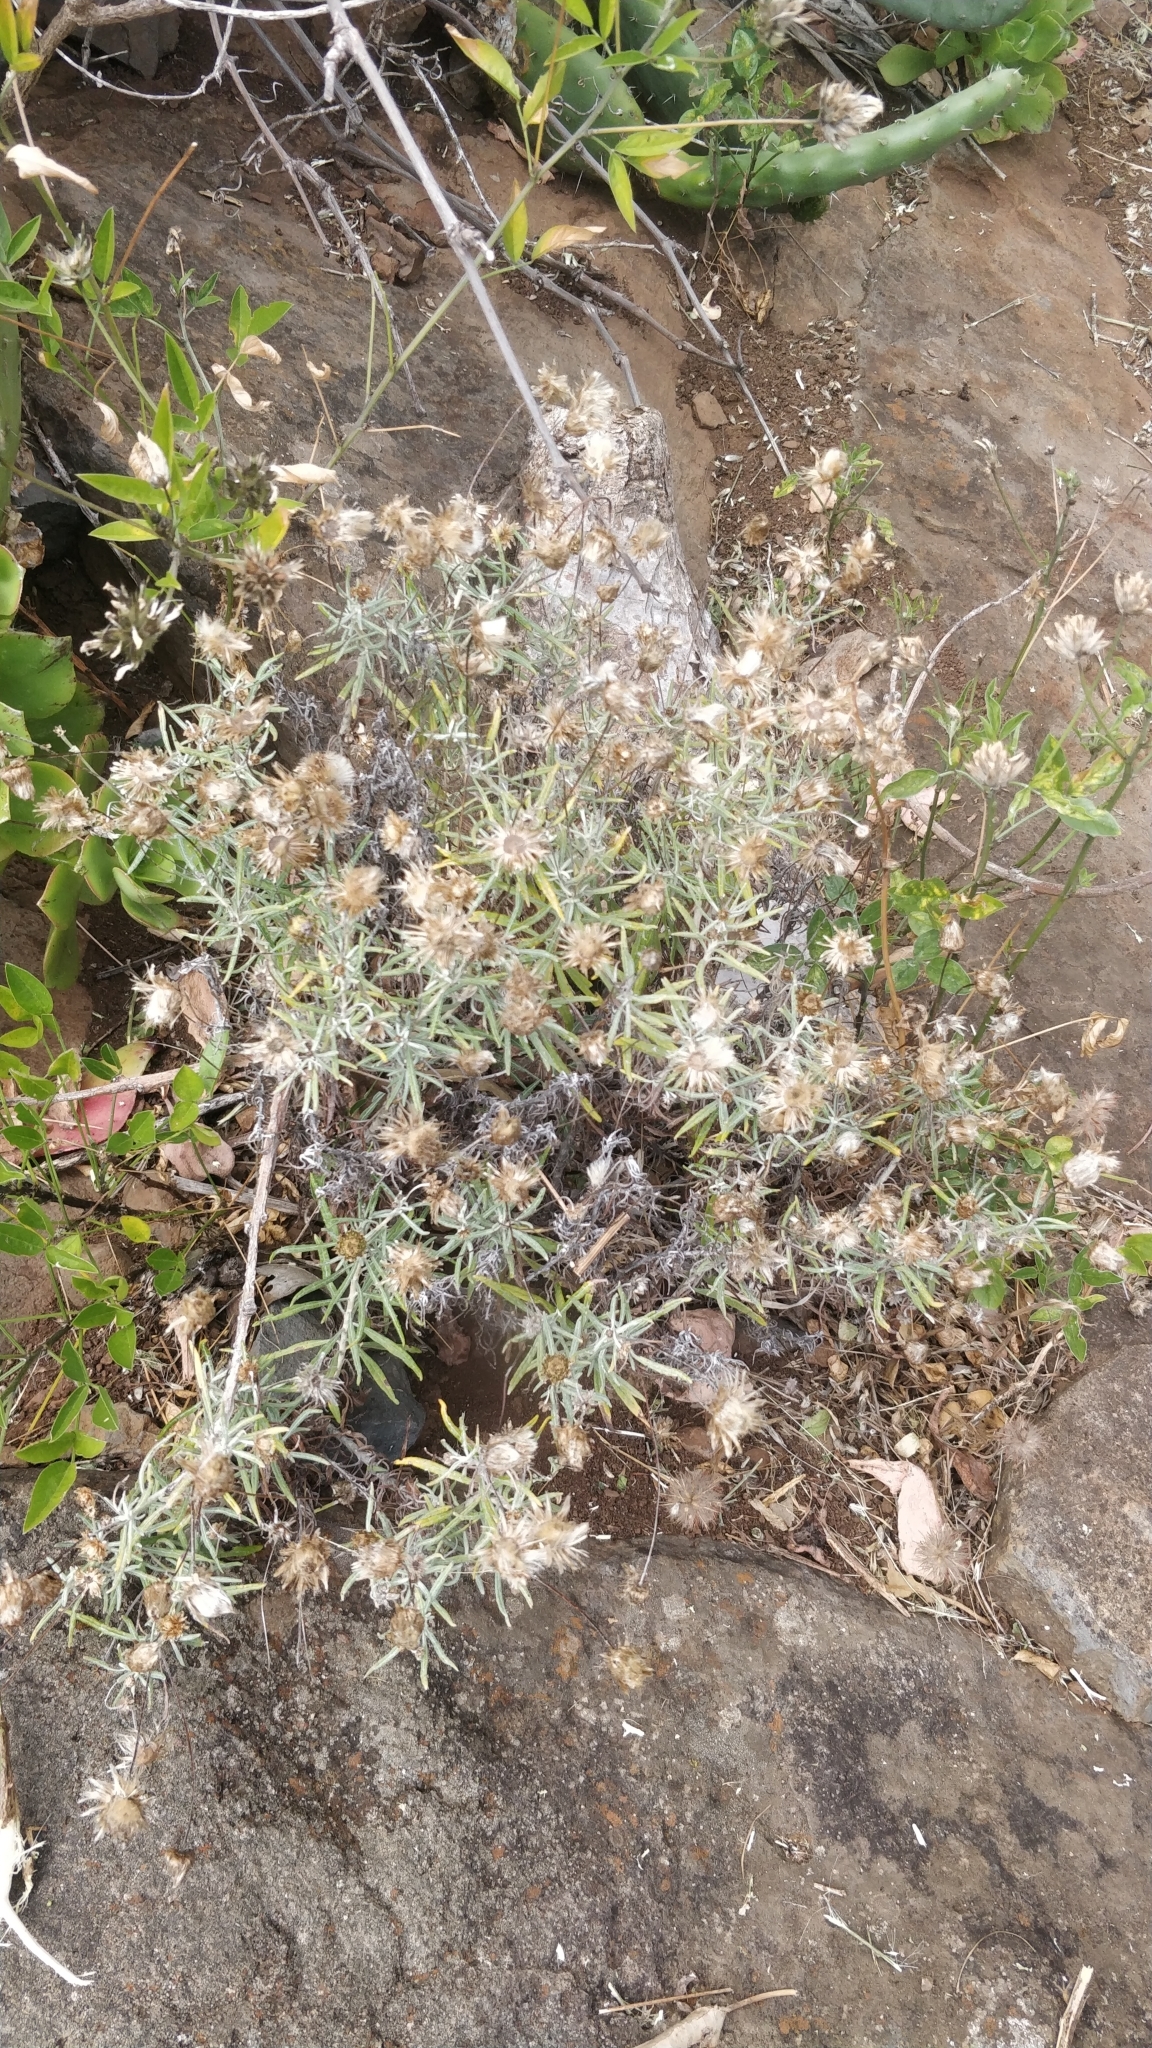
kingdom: Plantae
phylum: Tracheophyta
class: Magnoliopsida
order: Asterales
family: Asteraceae
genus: Phagnalon
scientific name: Phagnalon saxatile
